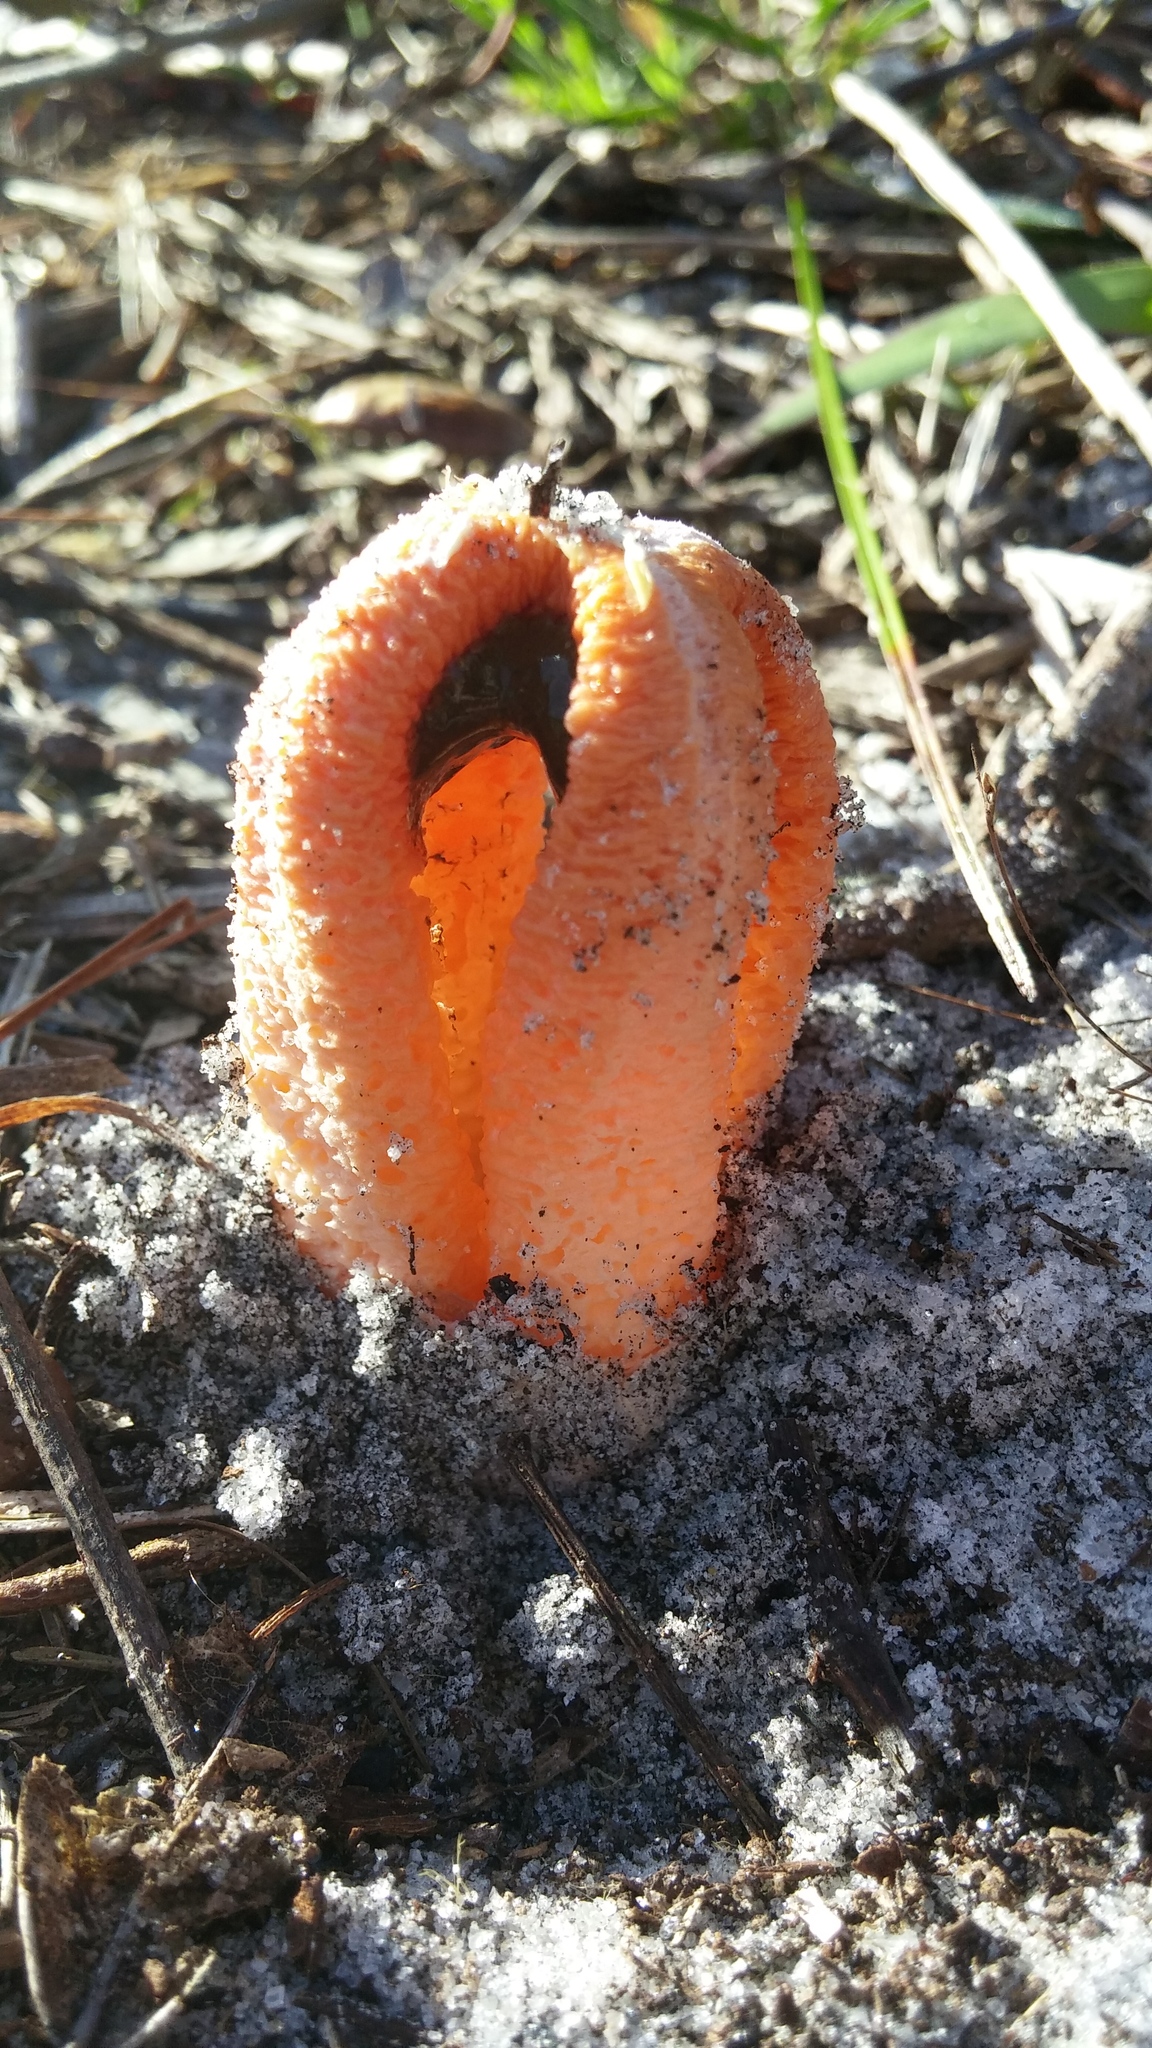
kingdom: Fungi
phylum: Basidiomycota
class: Agaricomycetes
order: Phallales
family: Phallaceae
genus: Clathrus
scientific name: Clathrus columnatus
